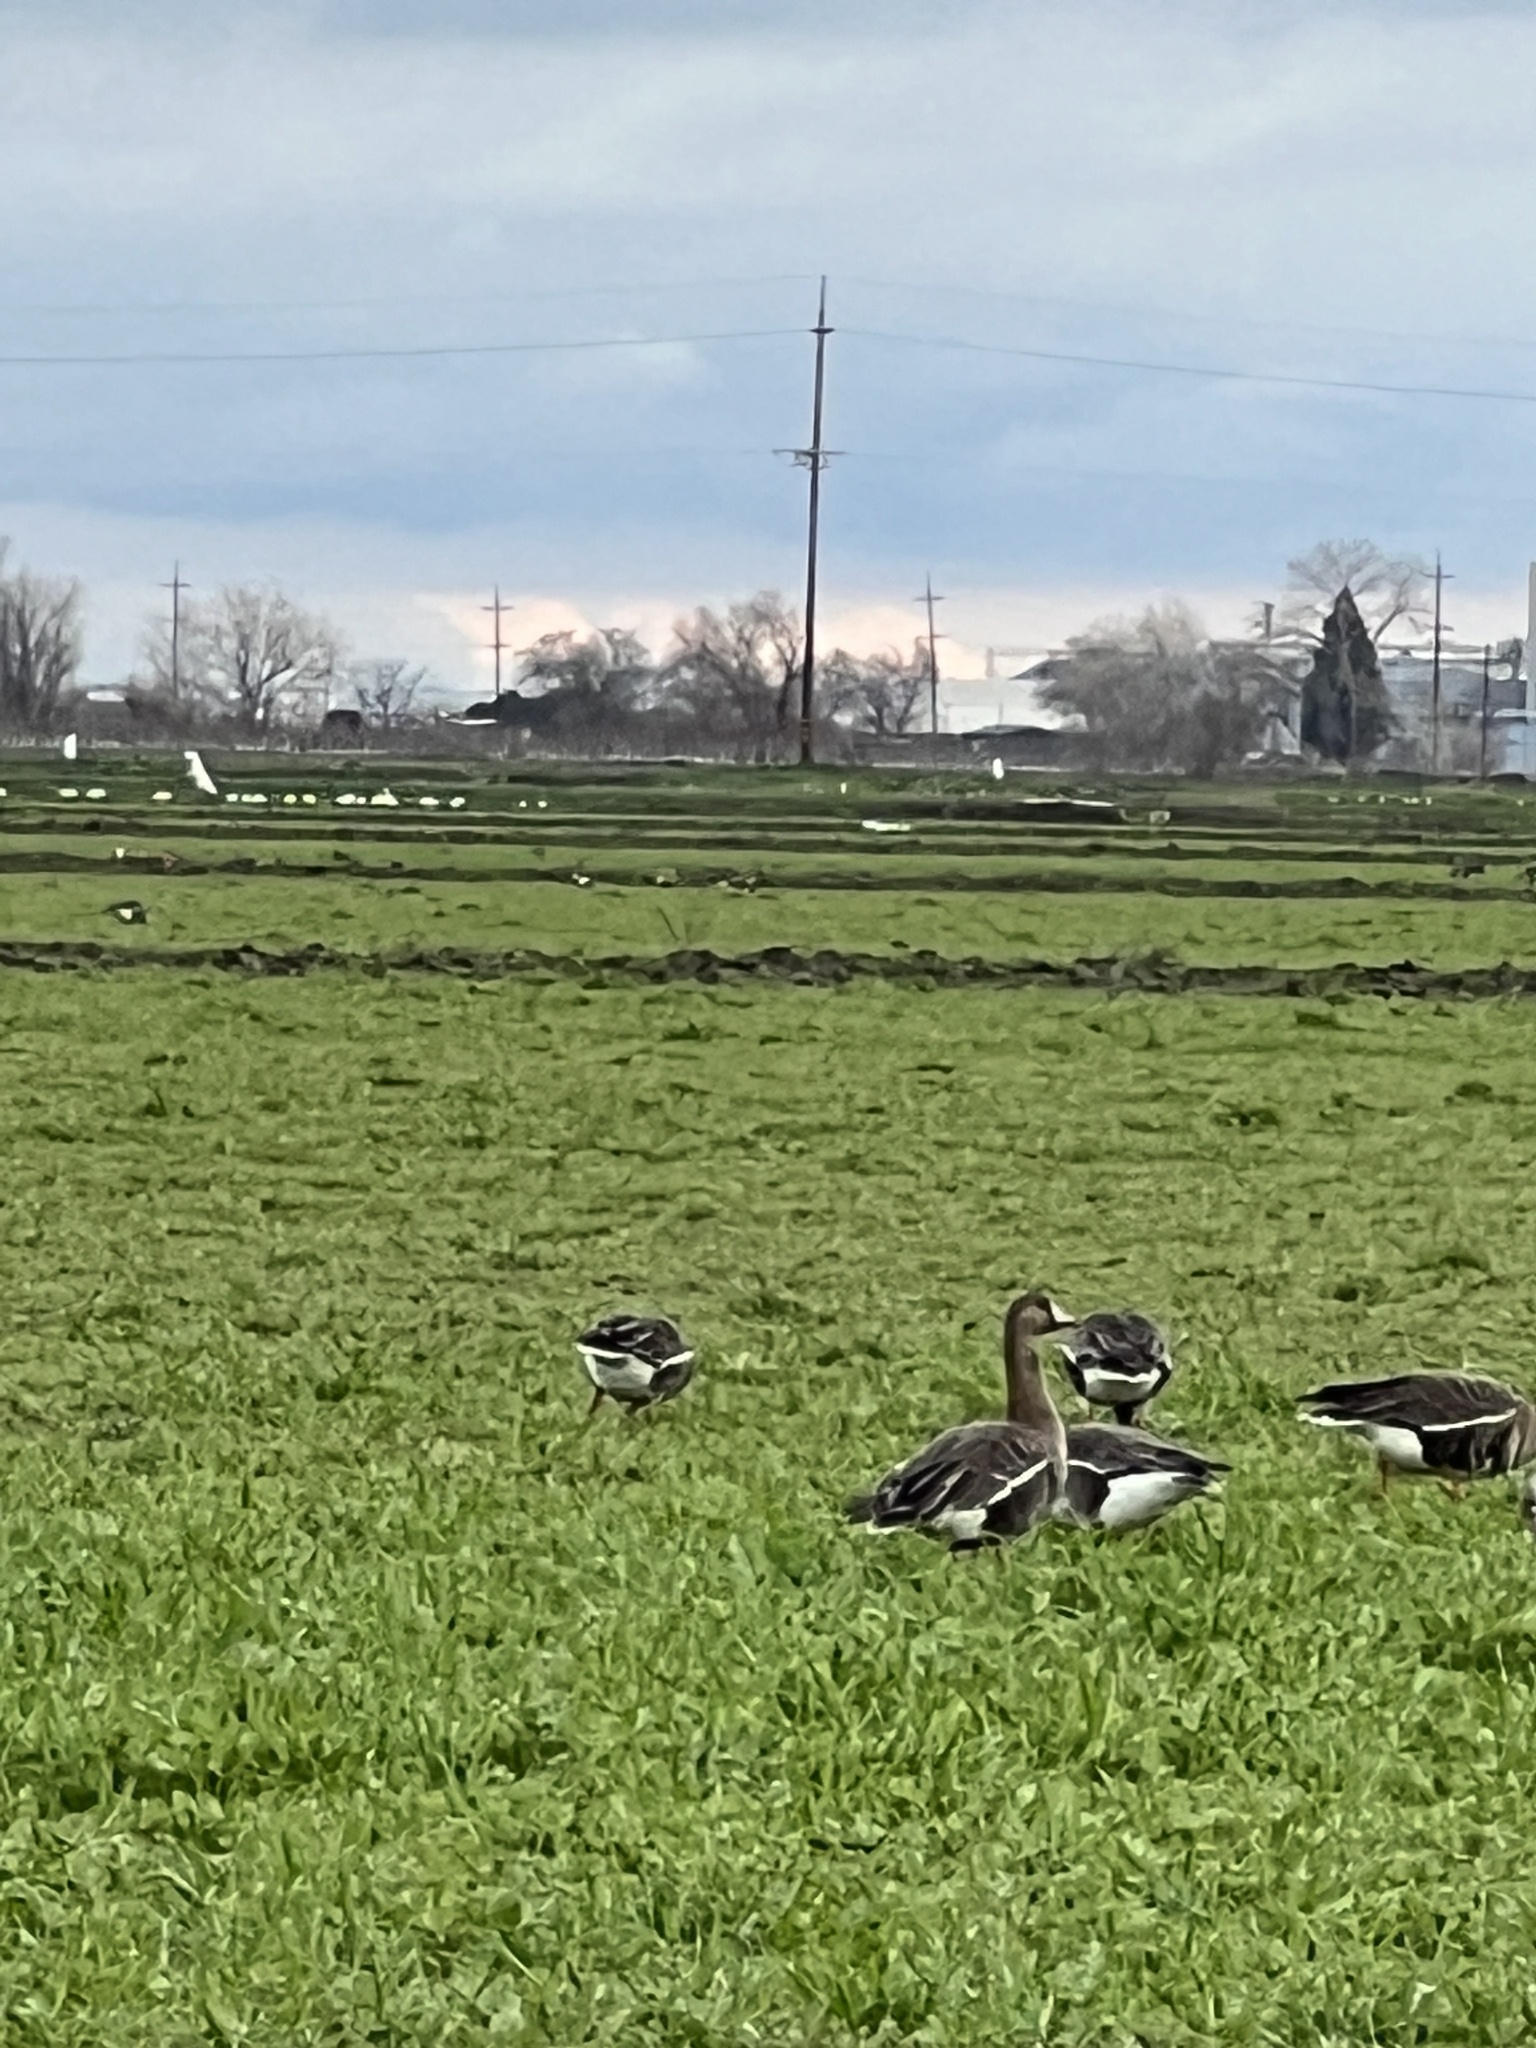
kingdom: Animalia
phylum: Chordata
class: Aves
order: Anseriformes
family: Anatidae
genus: Anser
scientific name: Anser albifrons
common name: Greater white-fronted goose
